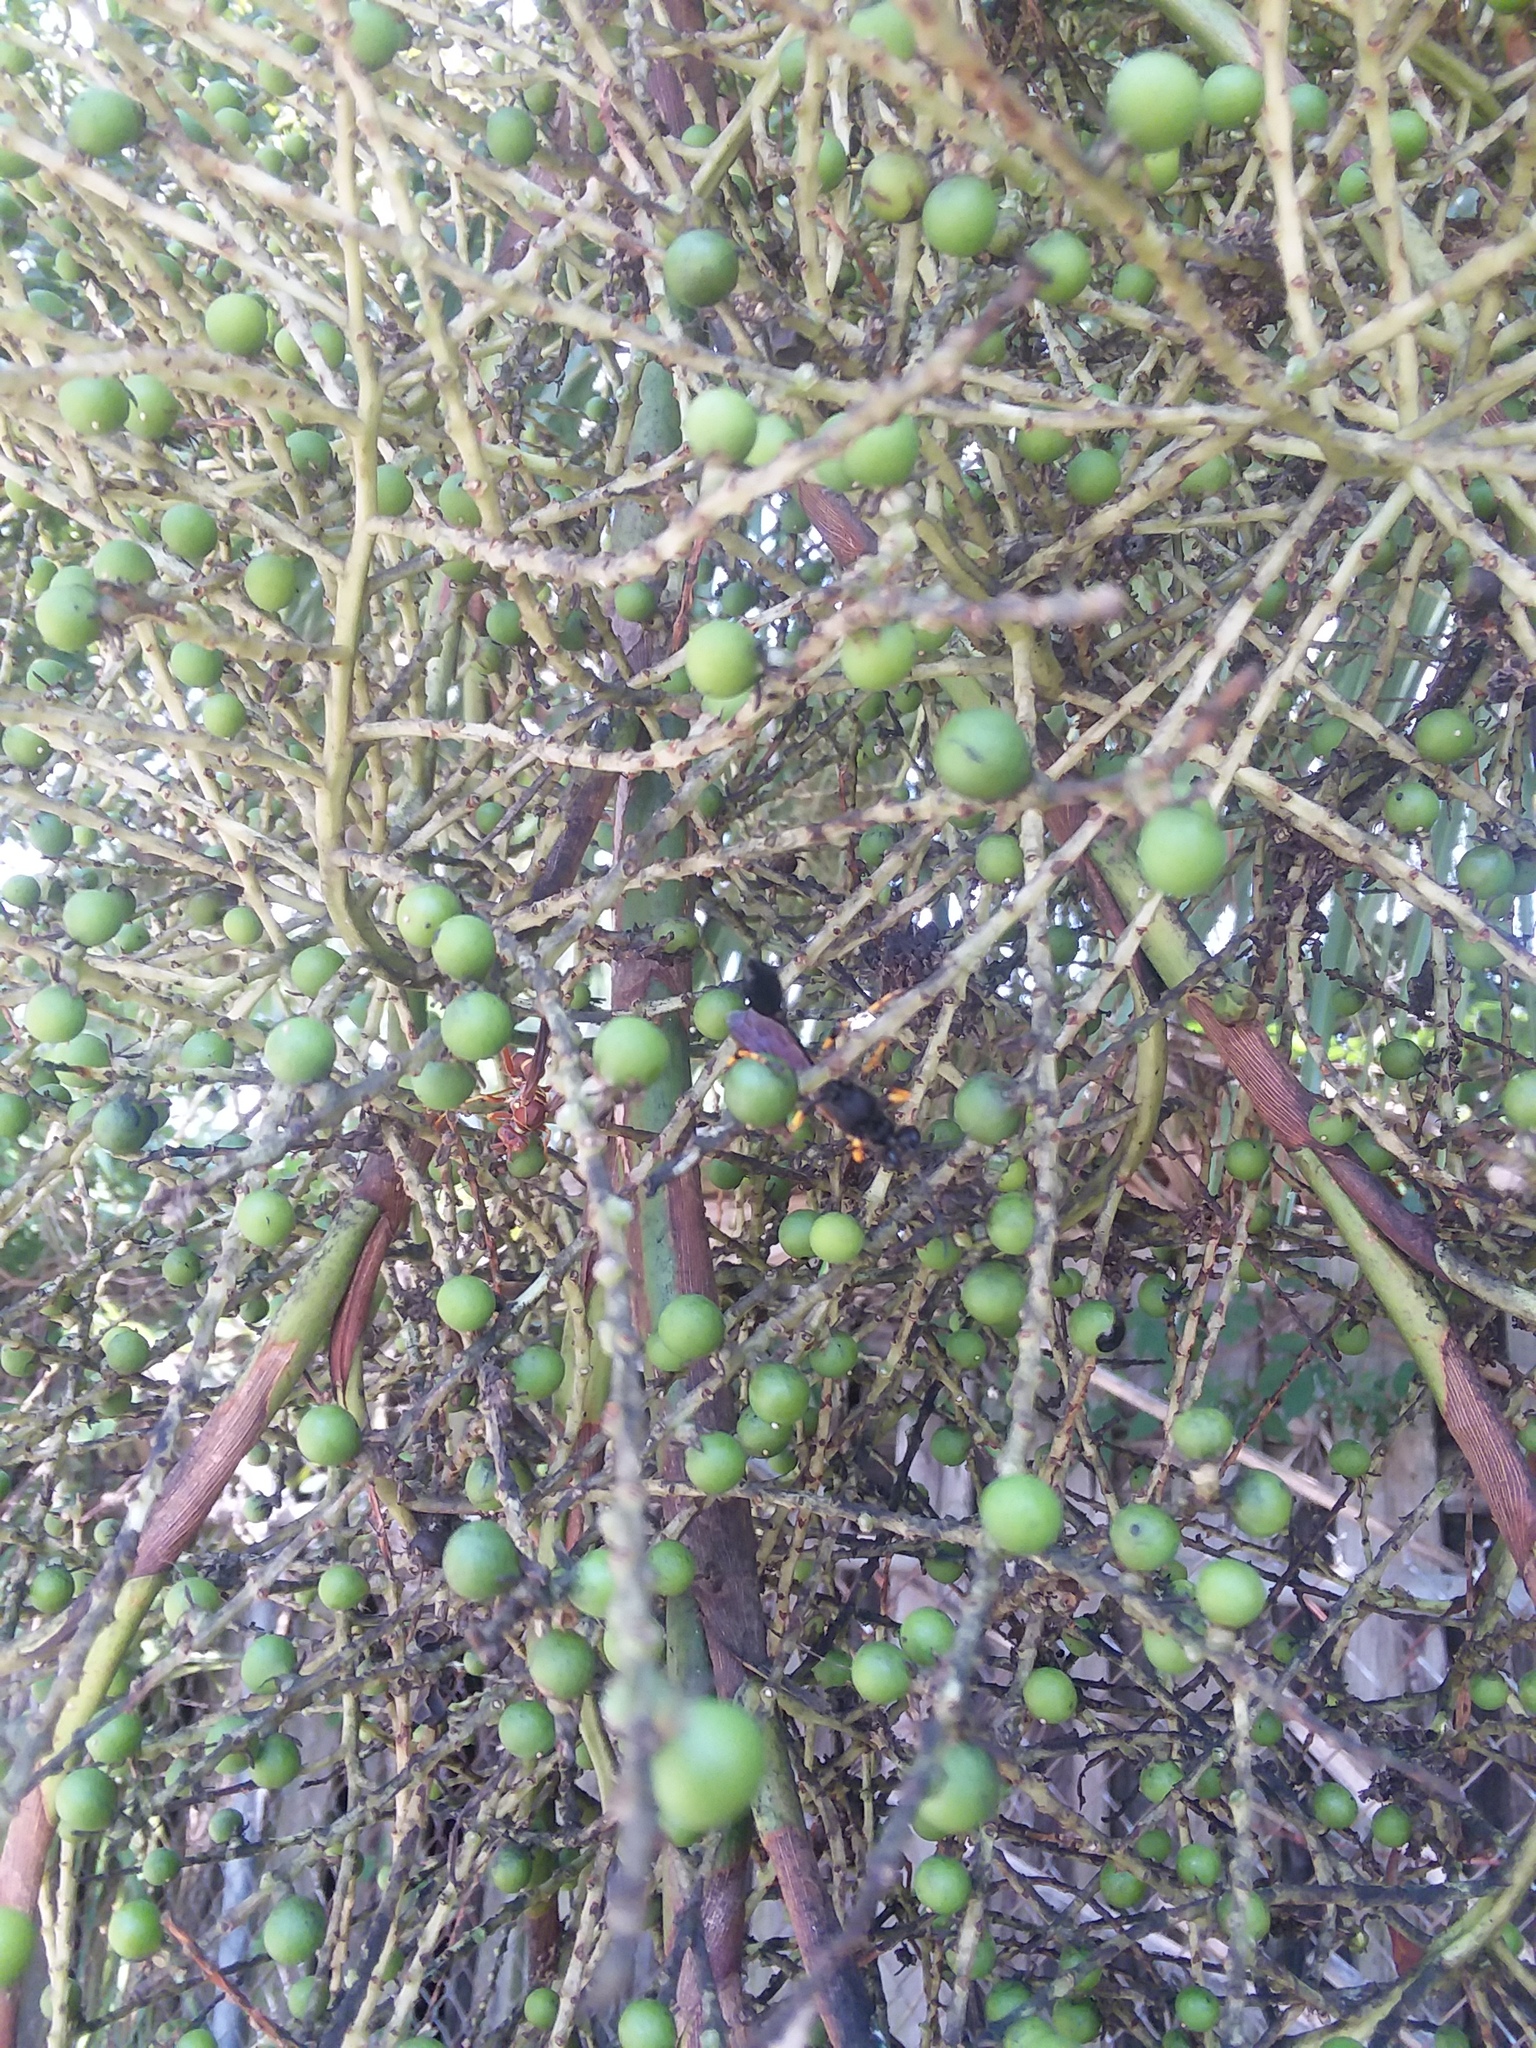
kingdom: Animalia
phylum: Arthropoda
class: Insecta
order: Hymenoptera
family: Sphecidae
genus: Sceliphron
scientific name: Sceliphron caementarium
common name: Mud dauber
